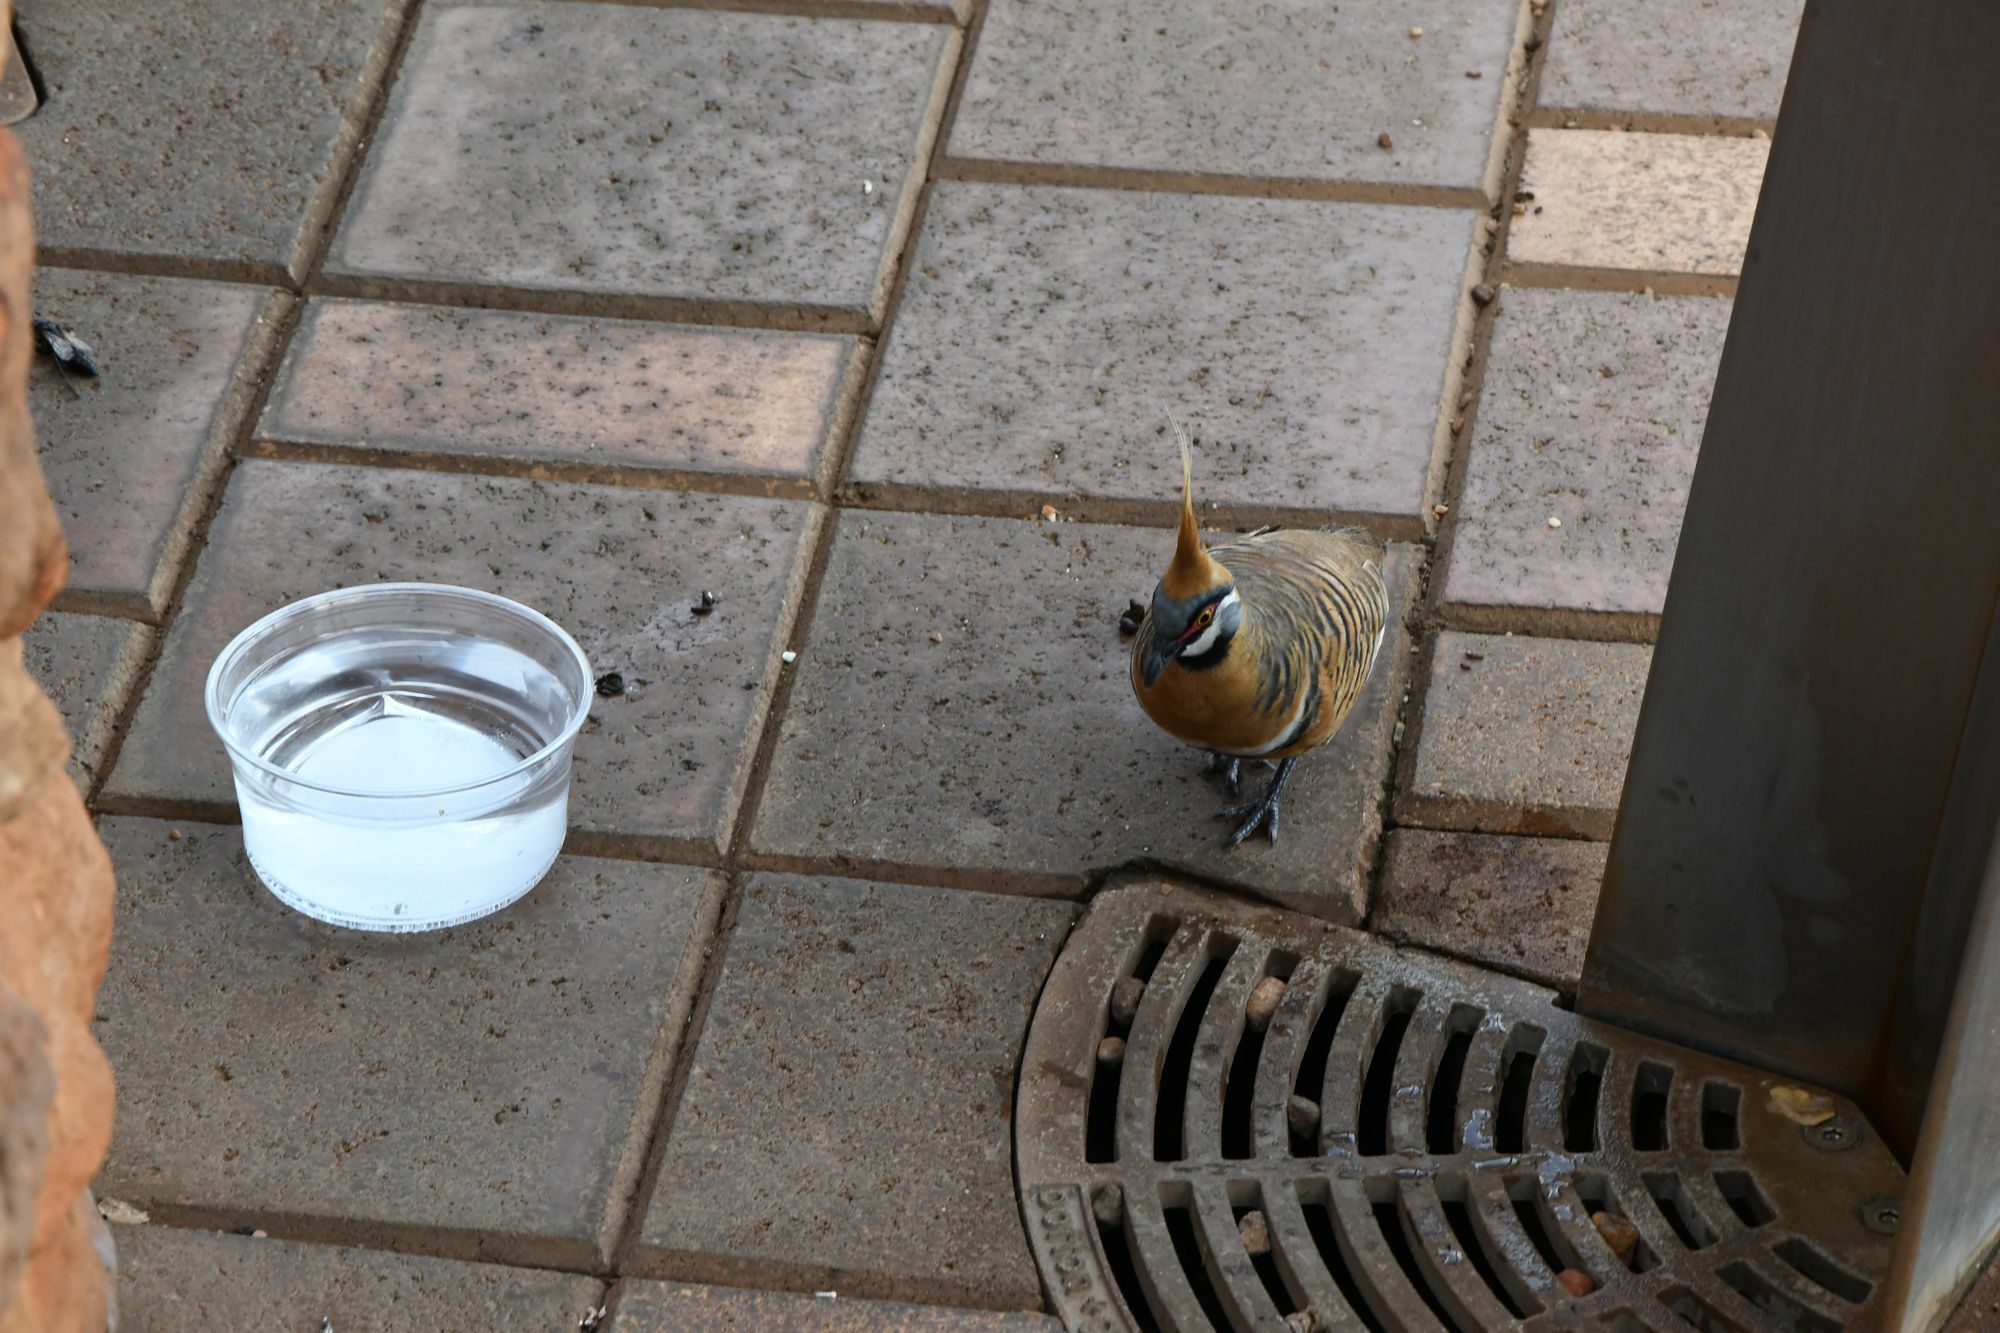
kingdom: Animalia
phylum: Chordata
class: Aves
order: Columbiformes
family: Columbidae
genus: Geophaps
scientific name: Geophaps plumifera
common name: Spinifex pigeon
